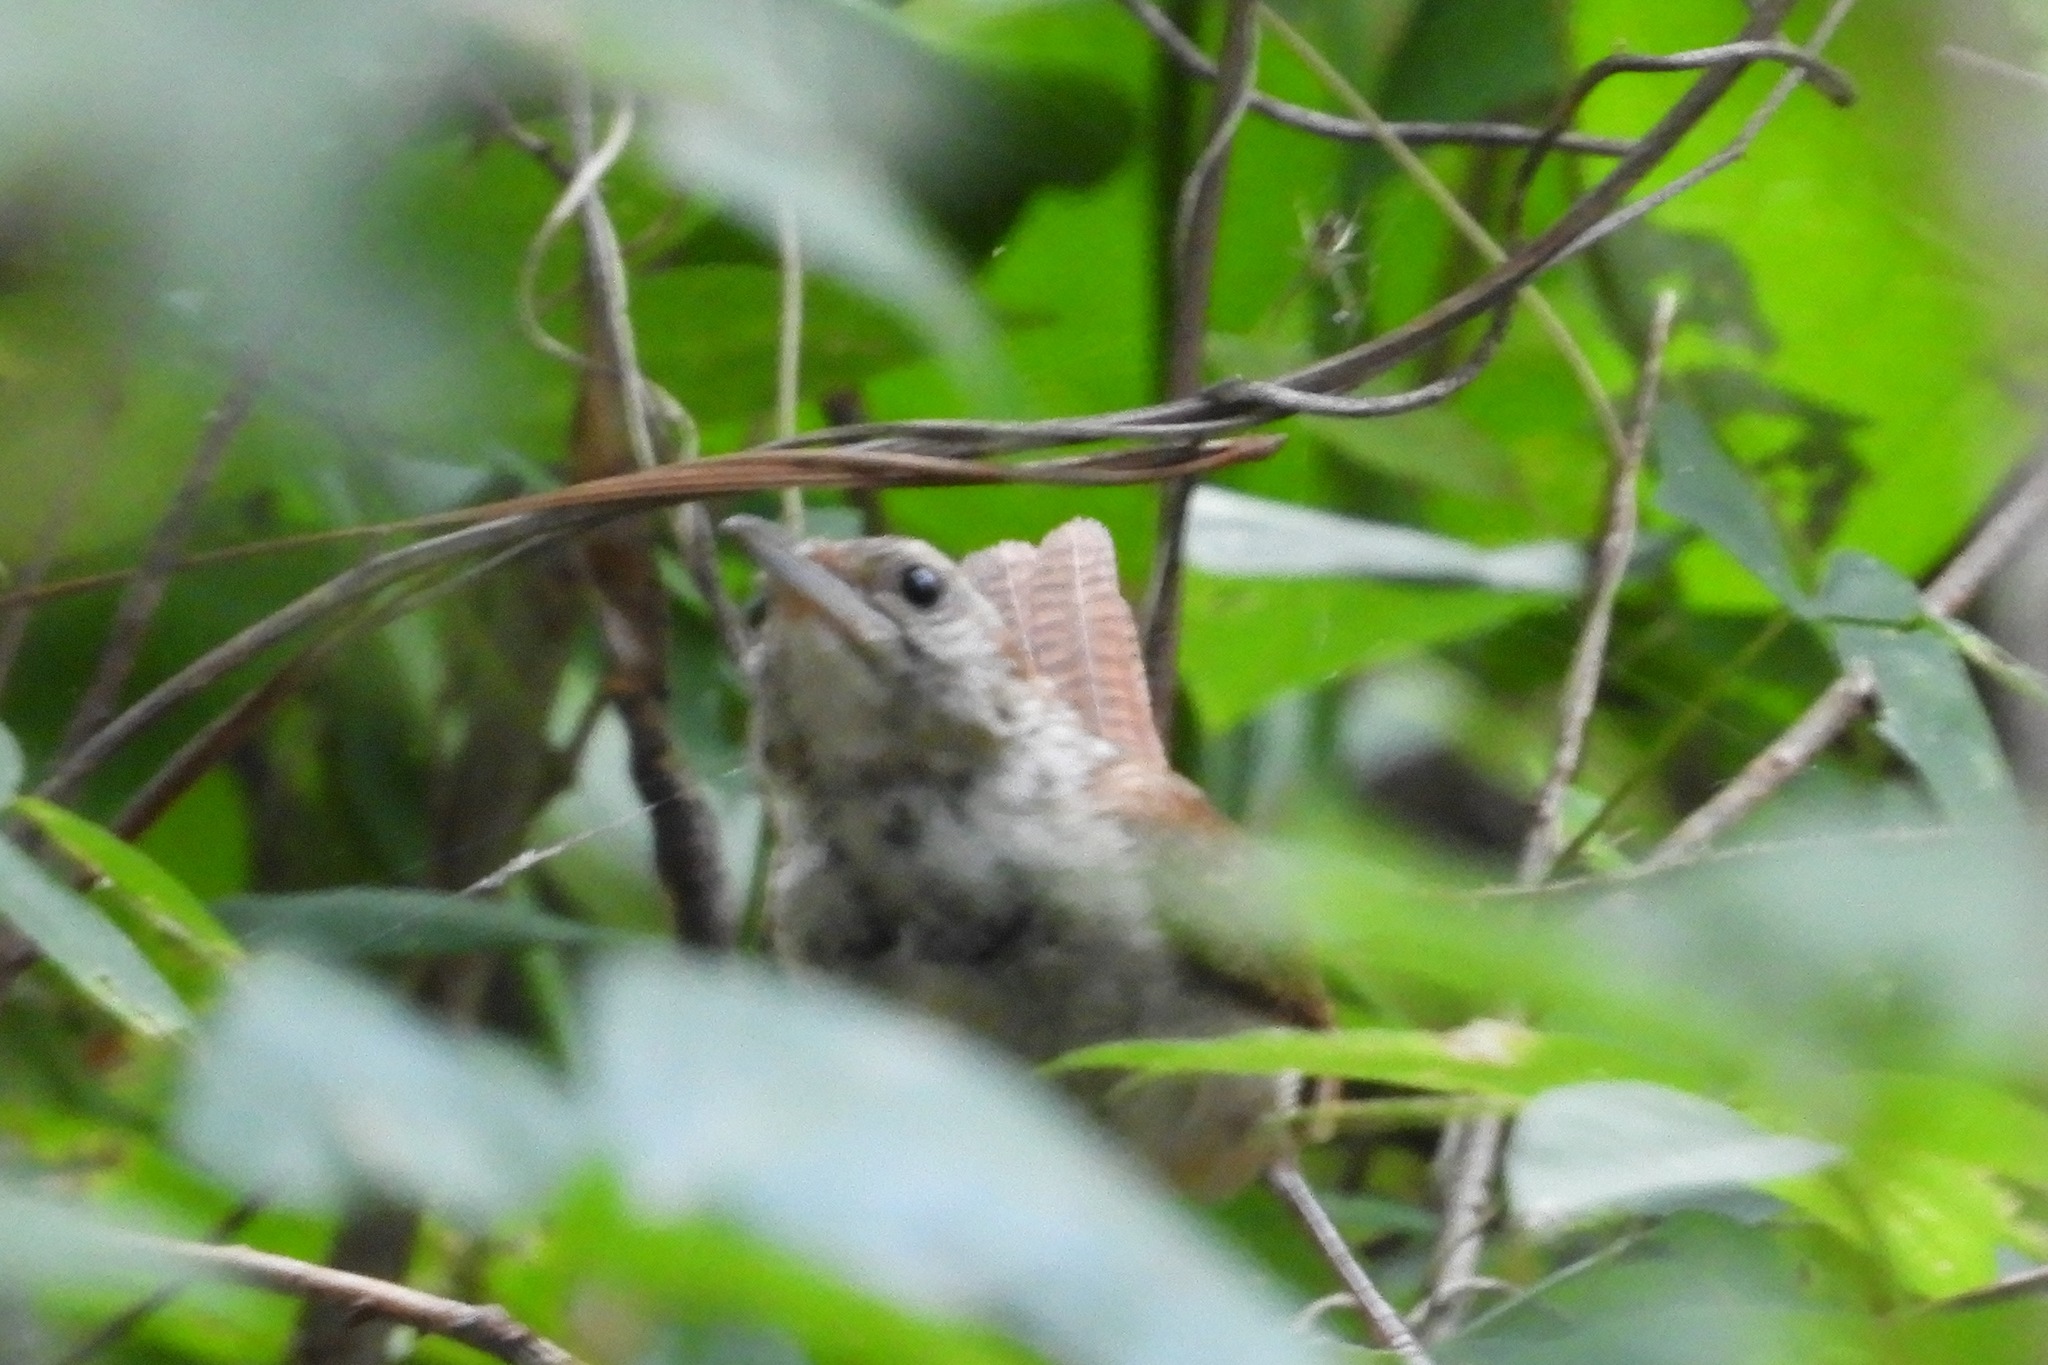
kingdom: Animalia
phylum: Chordata
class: Aves
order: Passeriformes
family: Troglodytidae
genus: Thryothorus
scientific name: Thryothorus ludovicianus
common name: Carolina wren
